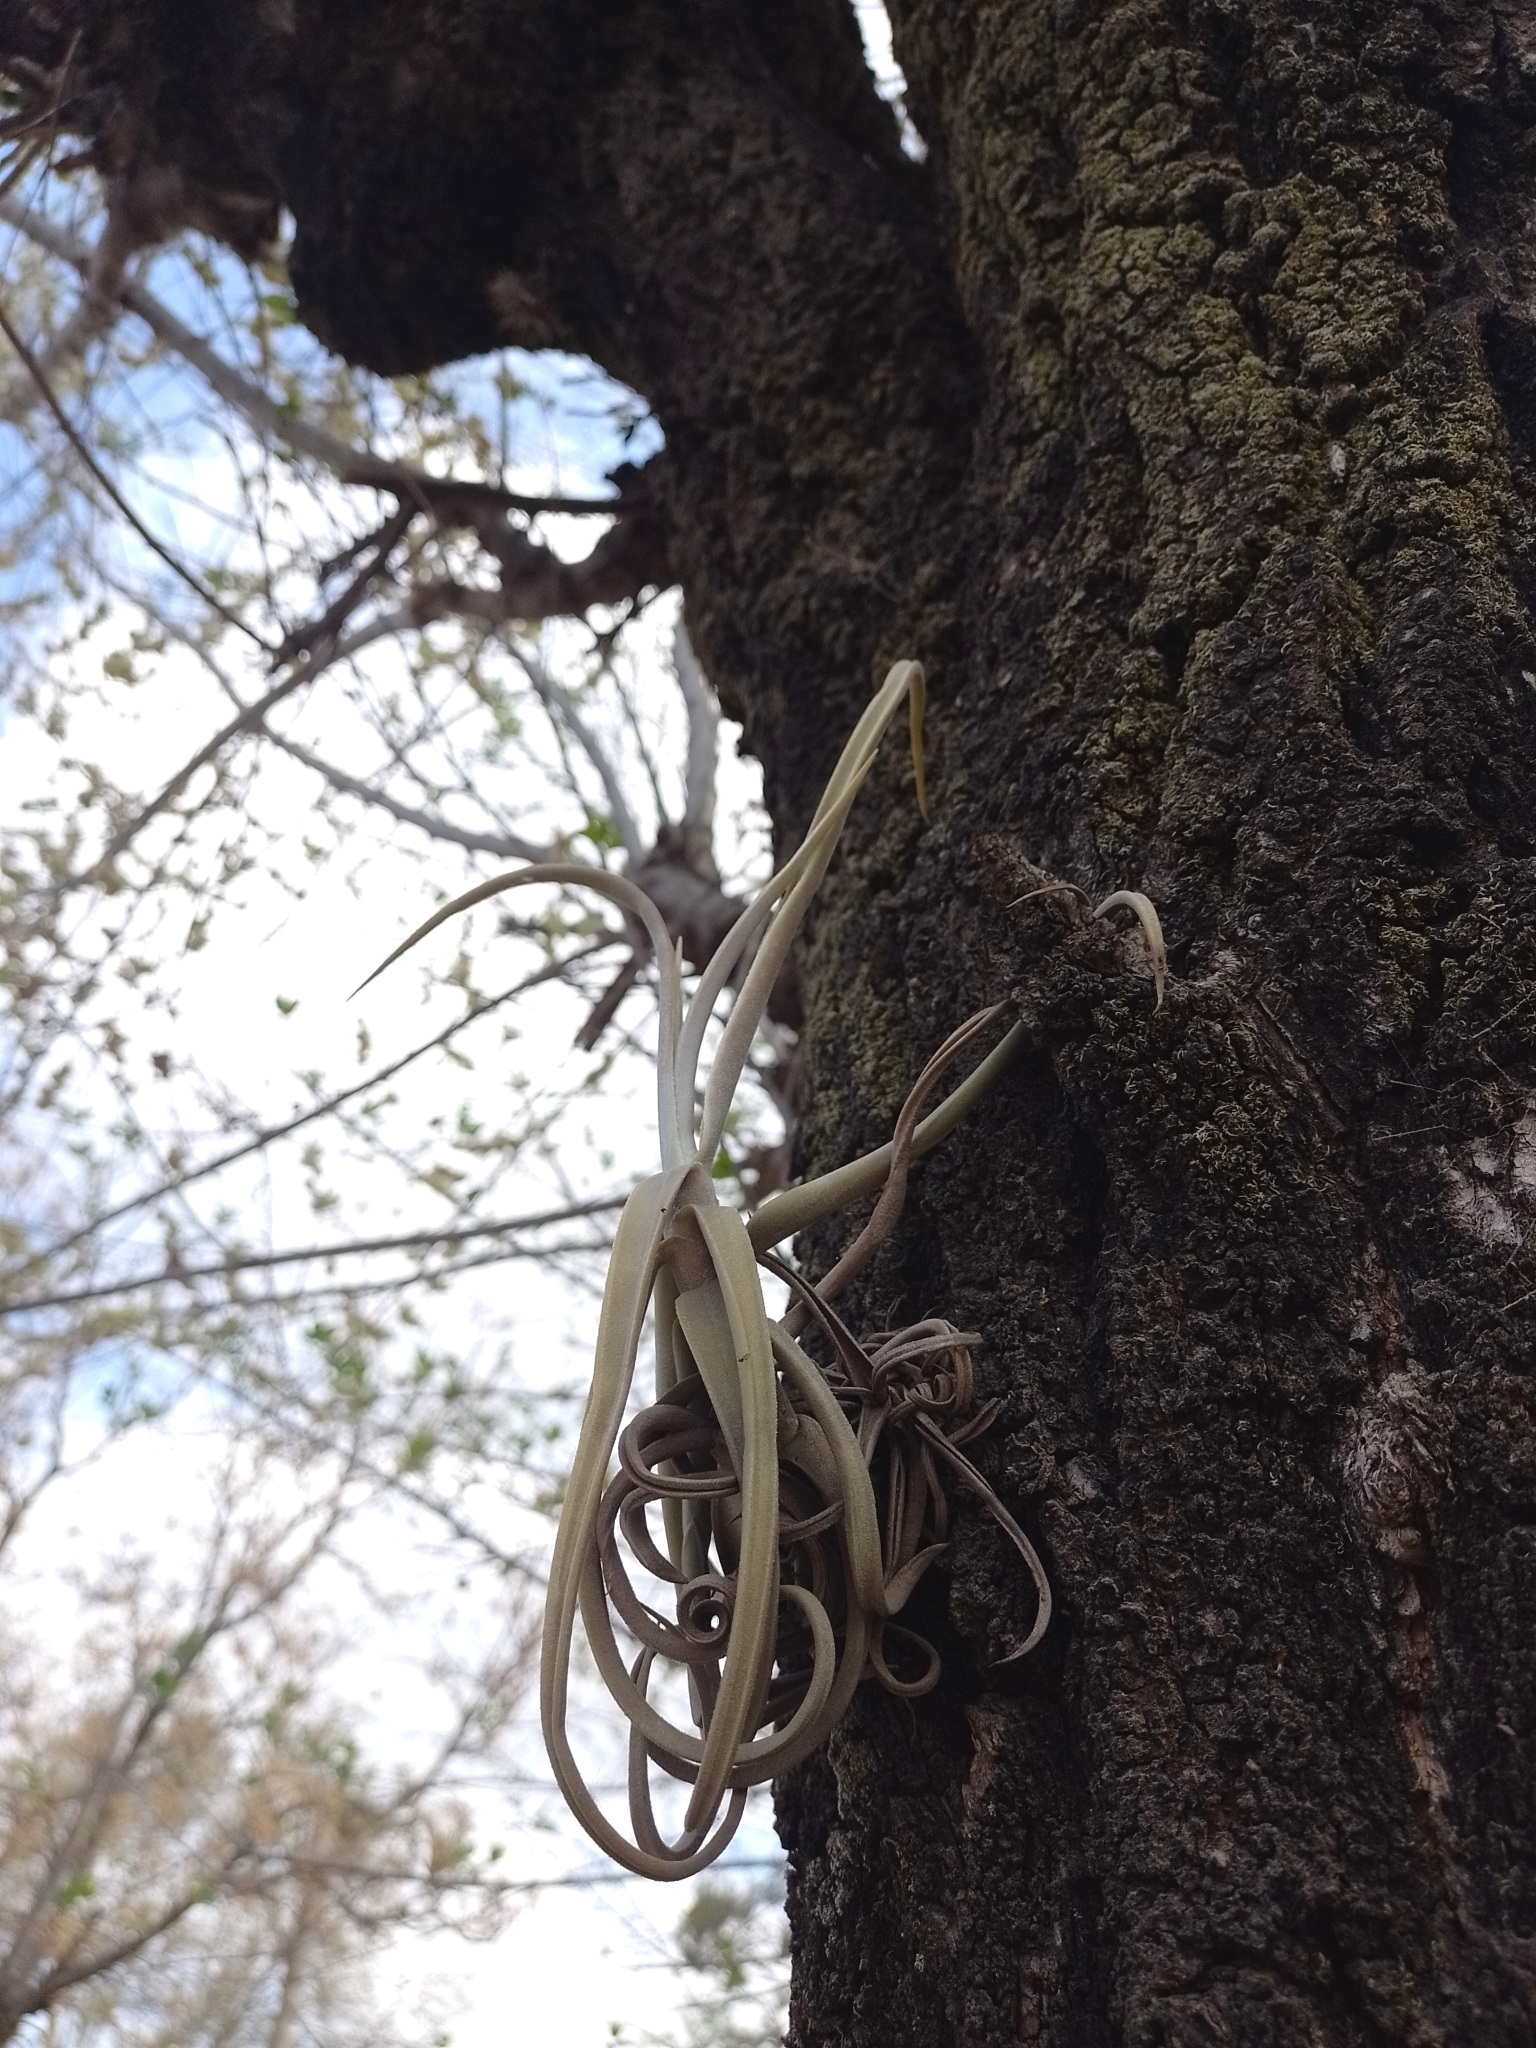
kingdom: Plantae
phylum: Tracheophyta
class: Liliopsida
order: Poales
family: Bromeliaceae
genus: Tillandsia
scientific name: Tillandsia duratii
